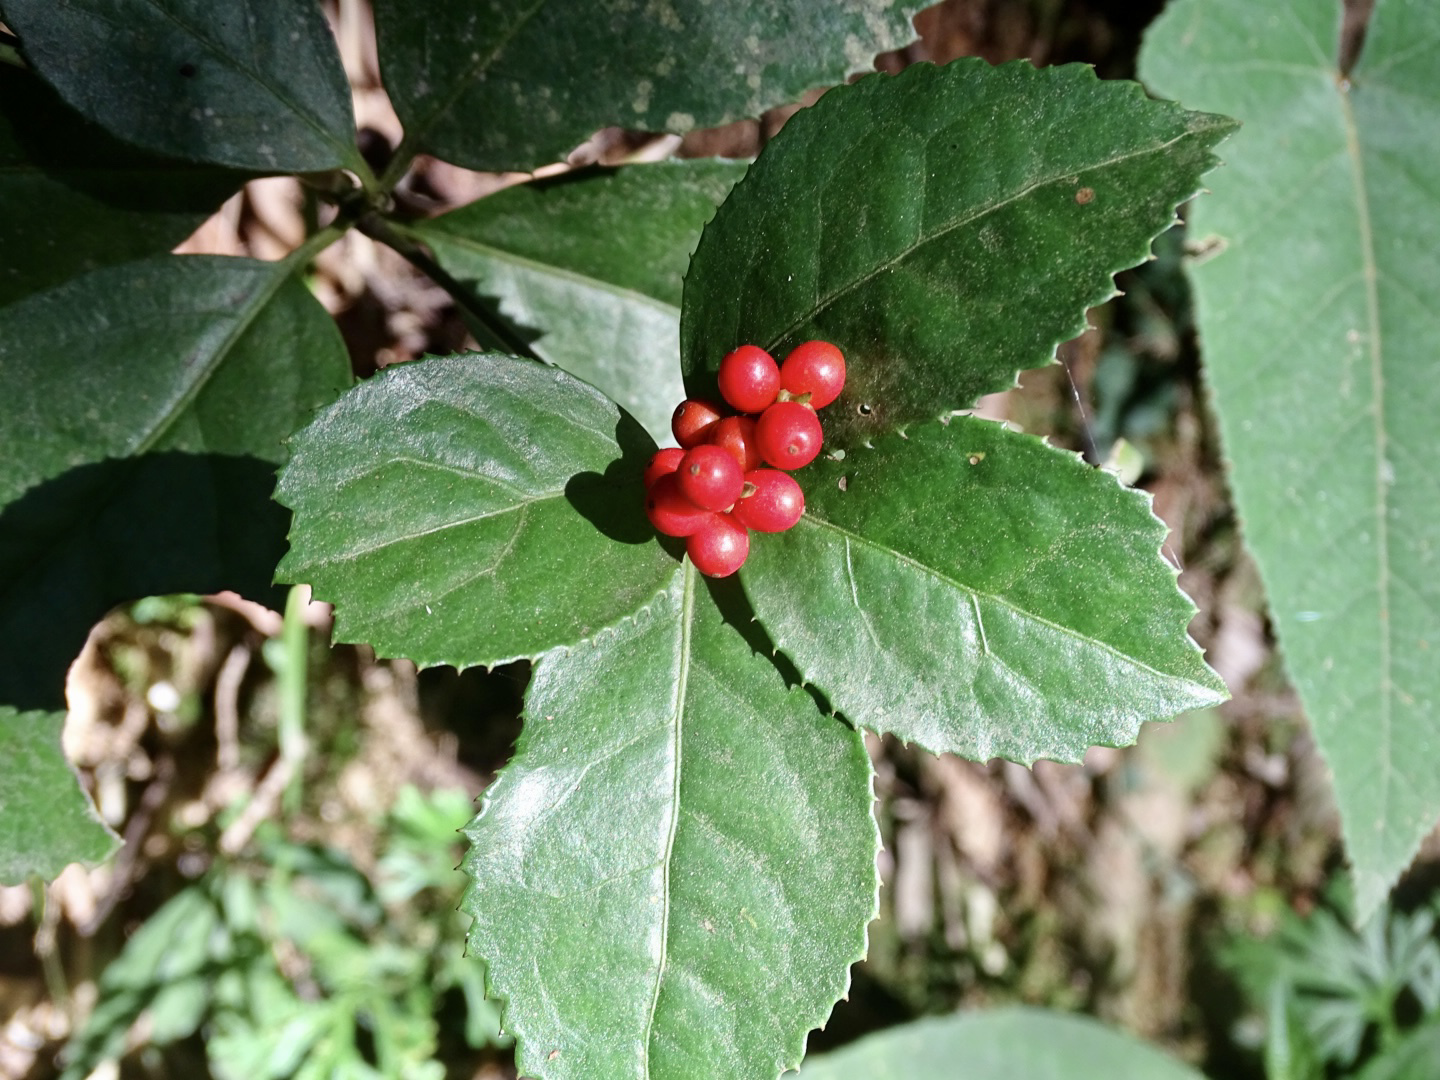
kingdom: Plantae
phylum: Tracheophyta
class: Magnoliopsida
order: Chloranthales
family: Chloranthaceae
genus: Sarcandra
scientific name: Sarcandra glabra
